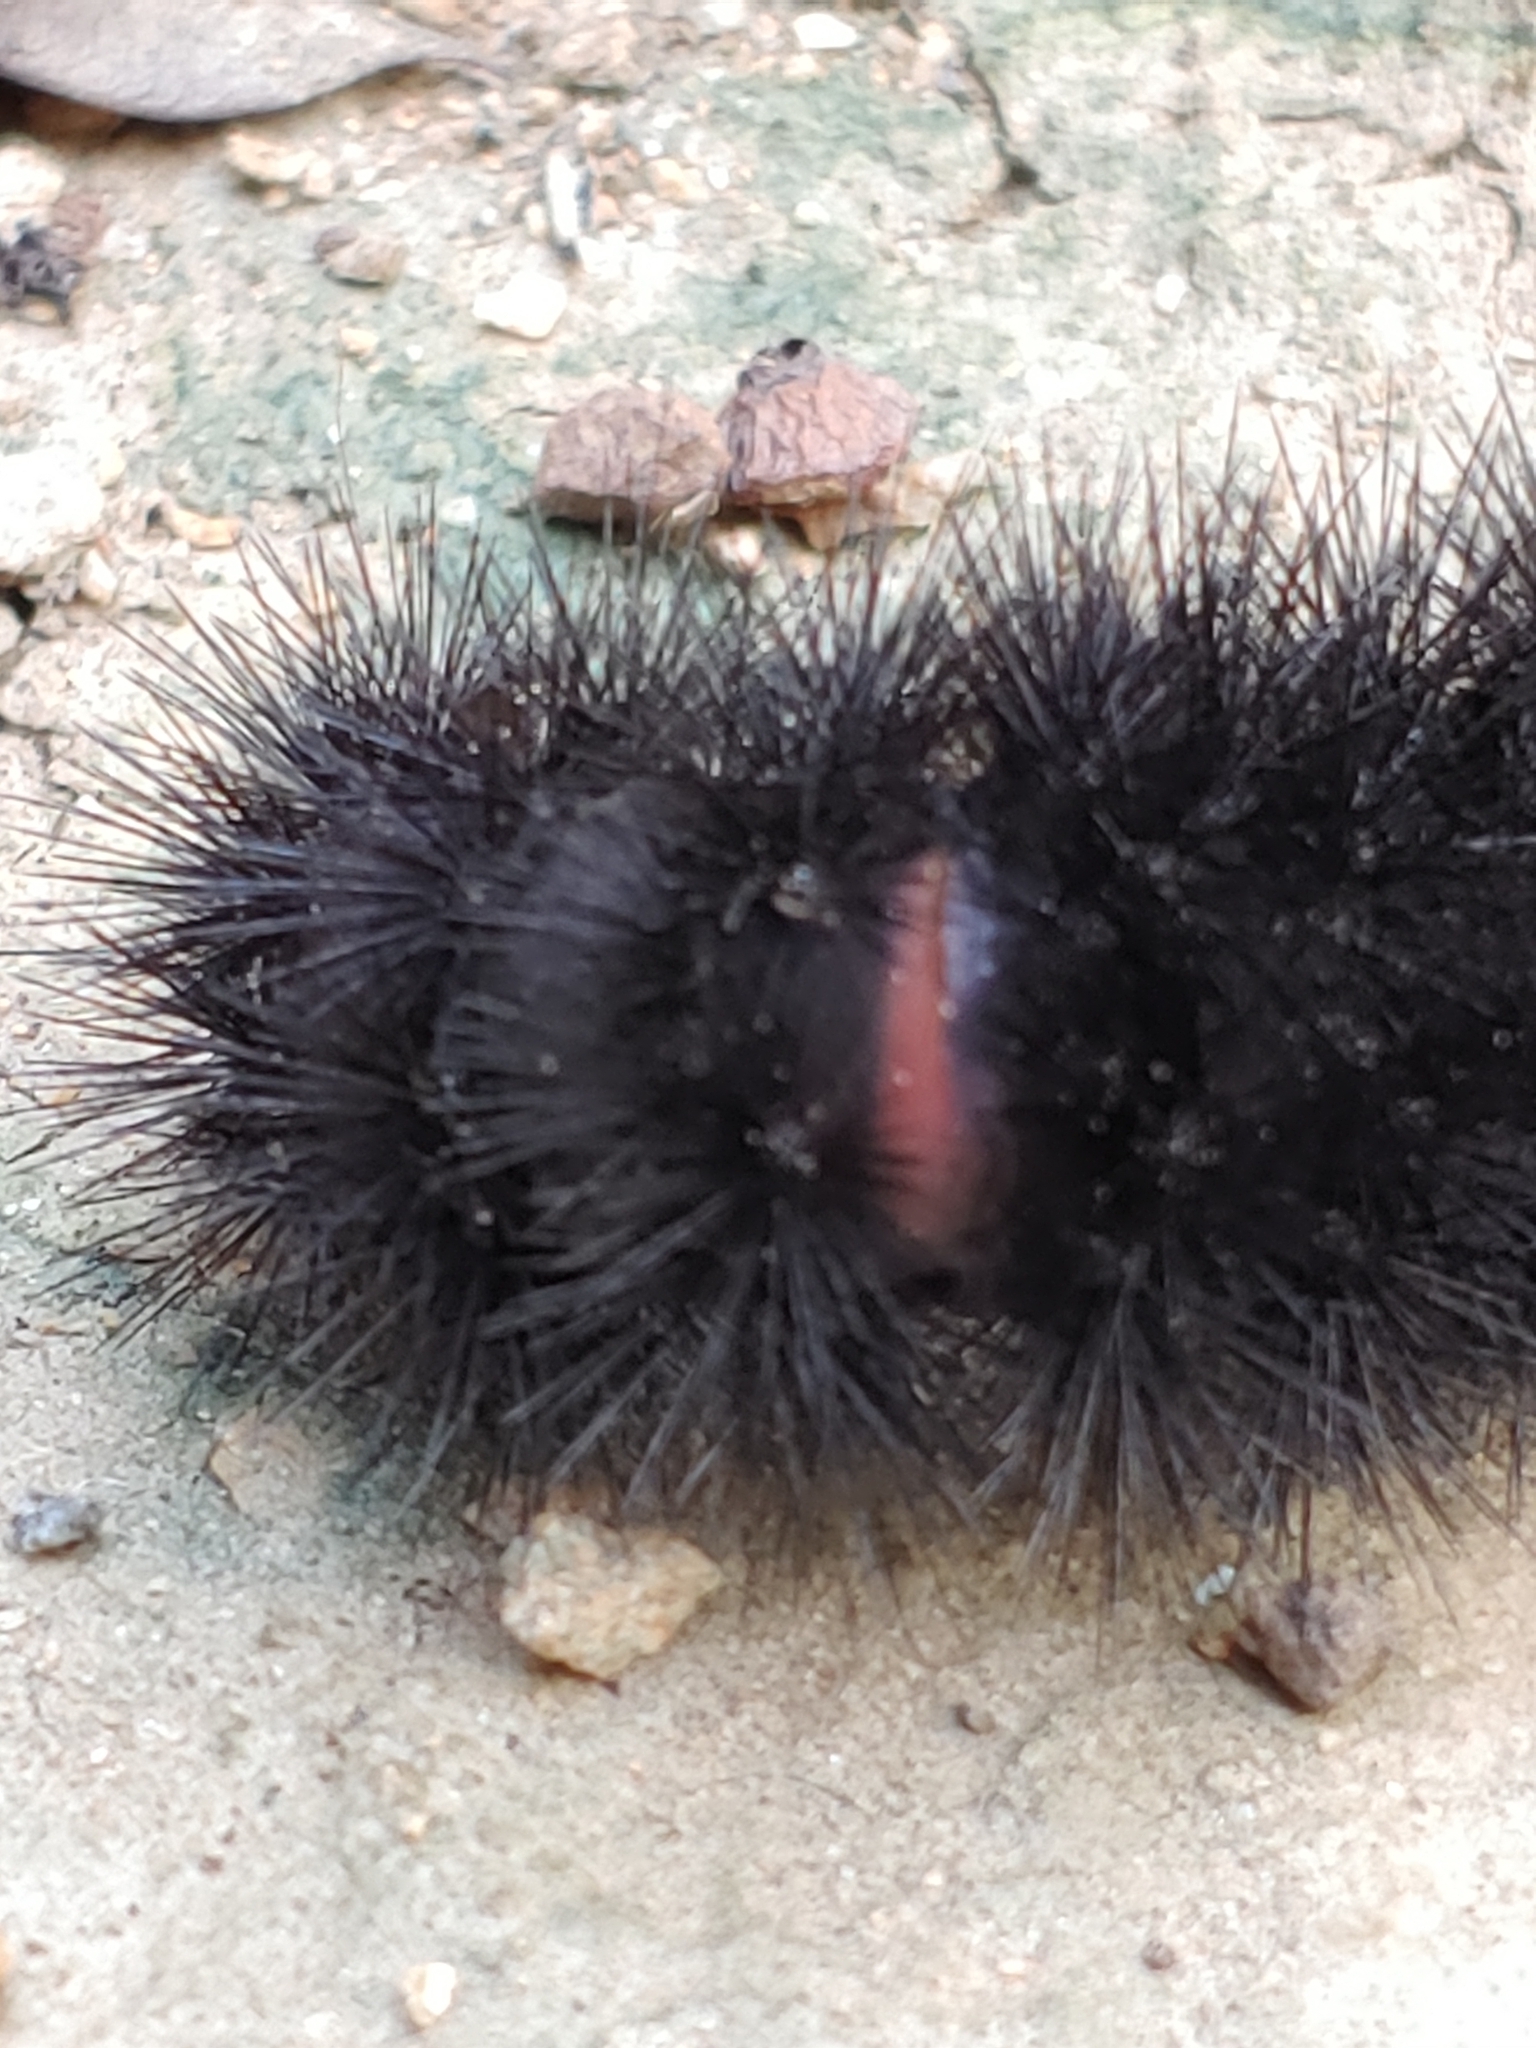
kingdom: Animalia
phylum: Arthropoda
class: Insecta
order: Lepidoptera
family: Erebidae
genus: Hypercompe
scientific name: Hypercompe scribonia
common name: Giant leopard moth
